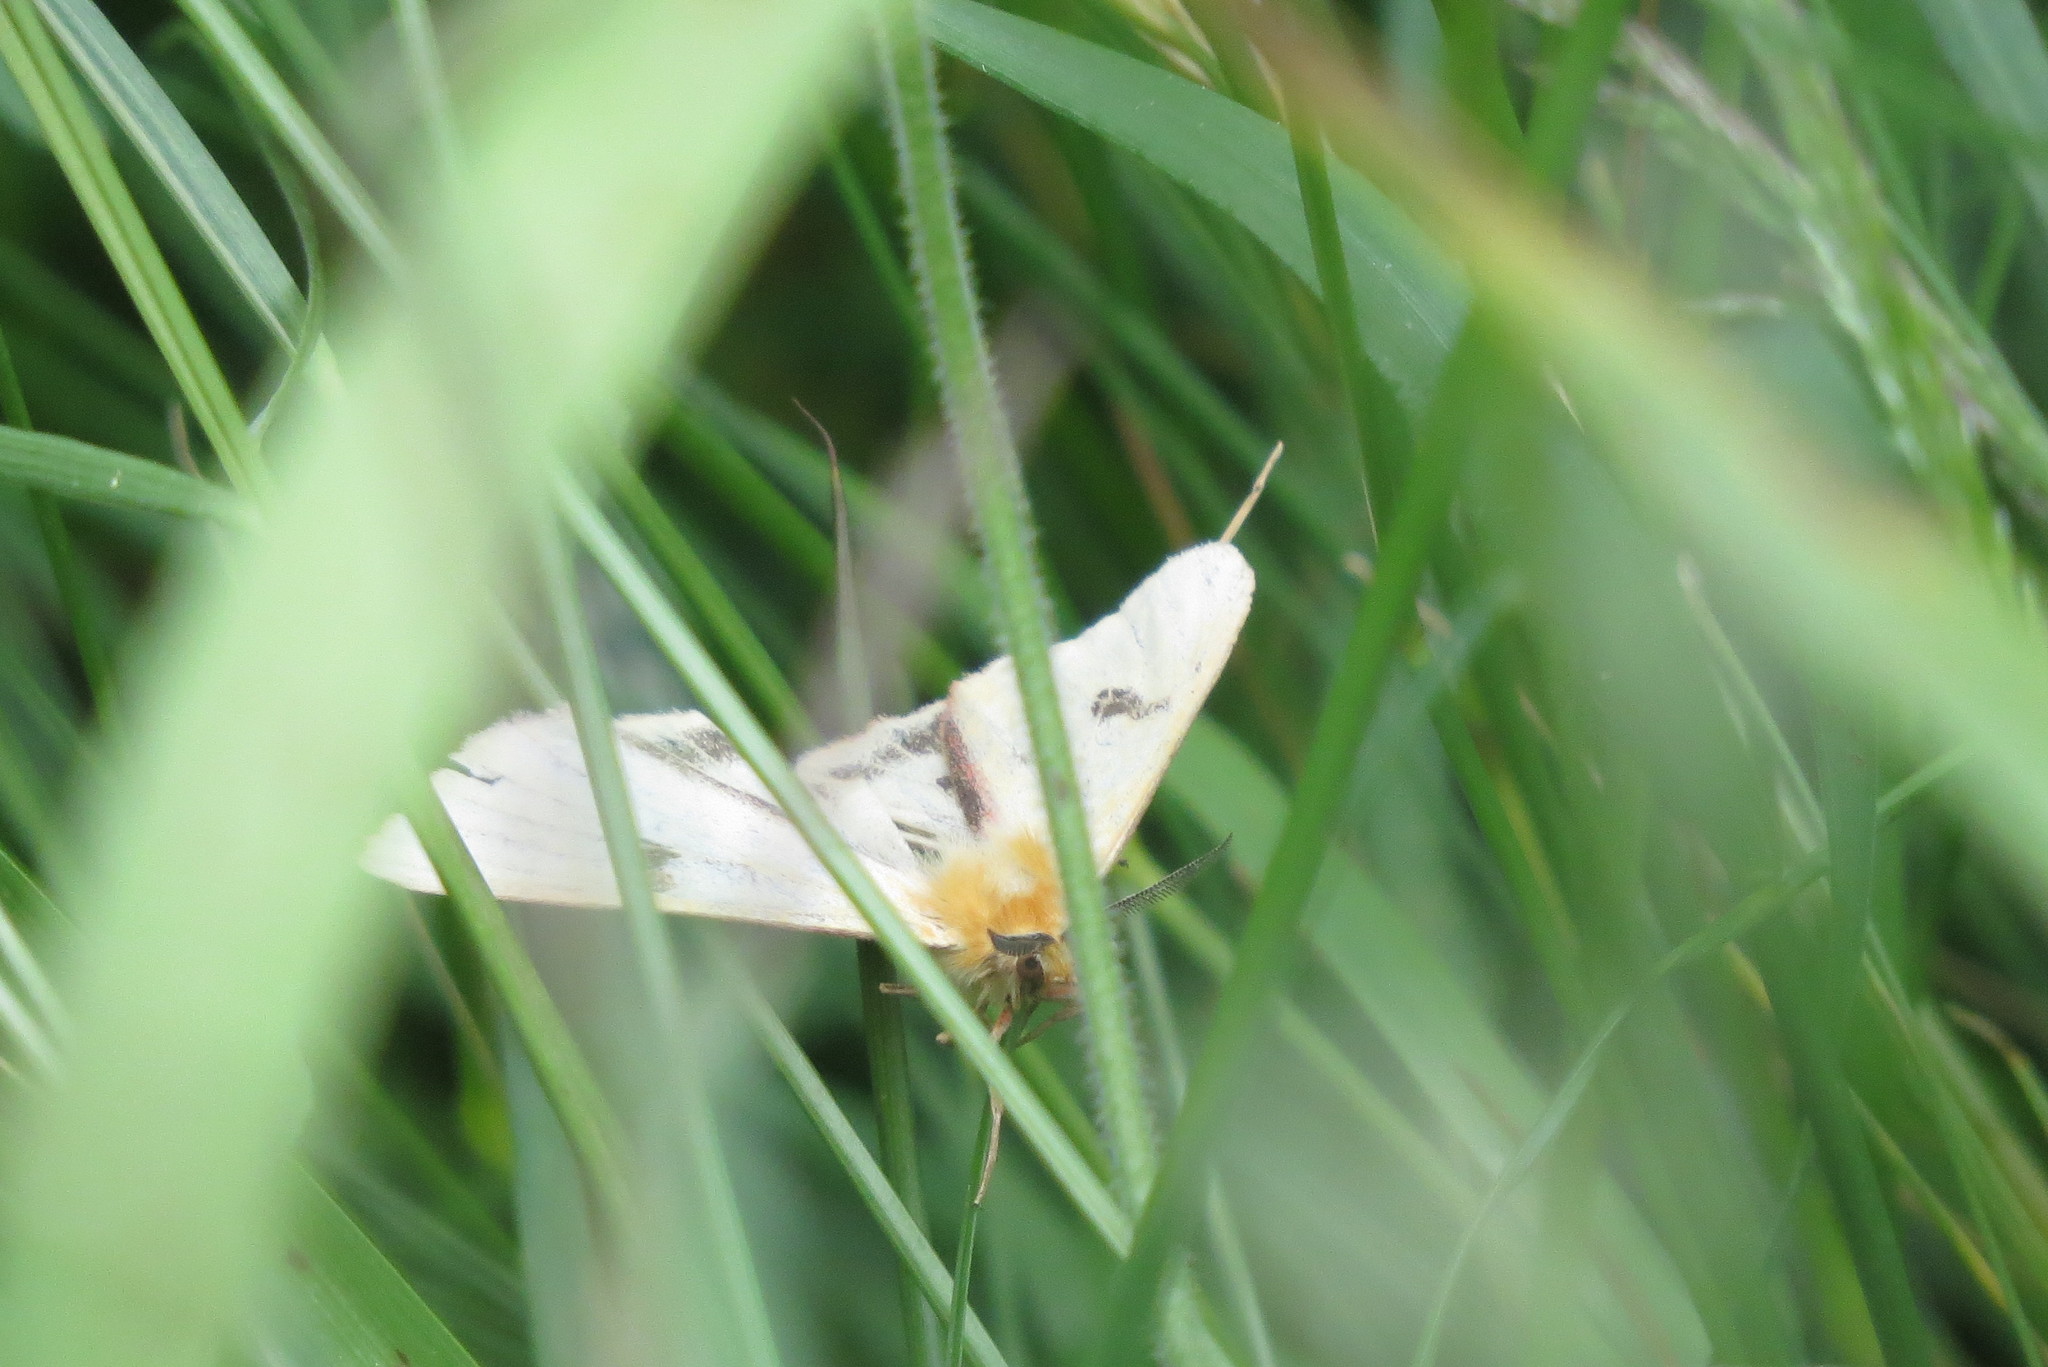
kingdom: Animalia
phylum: Arthropoda
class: Insecta
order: Lepidoptera
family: Erebidae
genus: Diacrisia
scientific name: Diacrisia sannio
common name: Clouded buff
